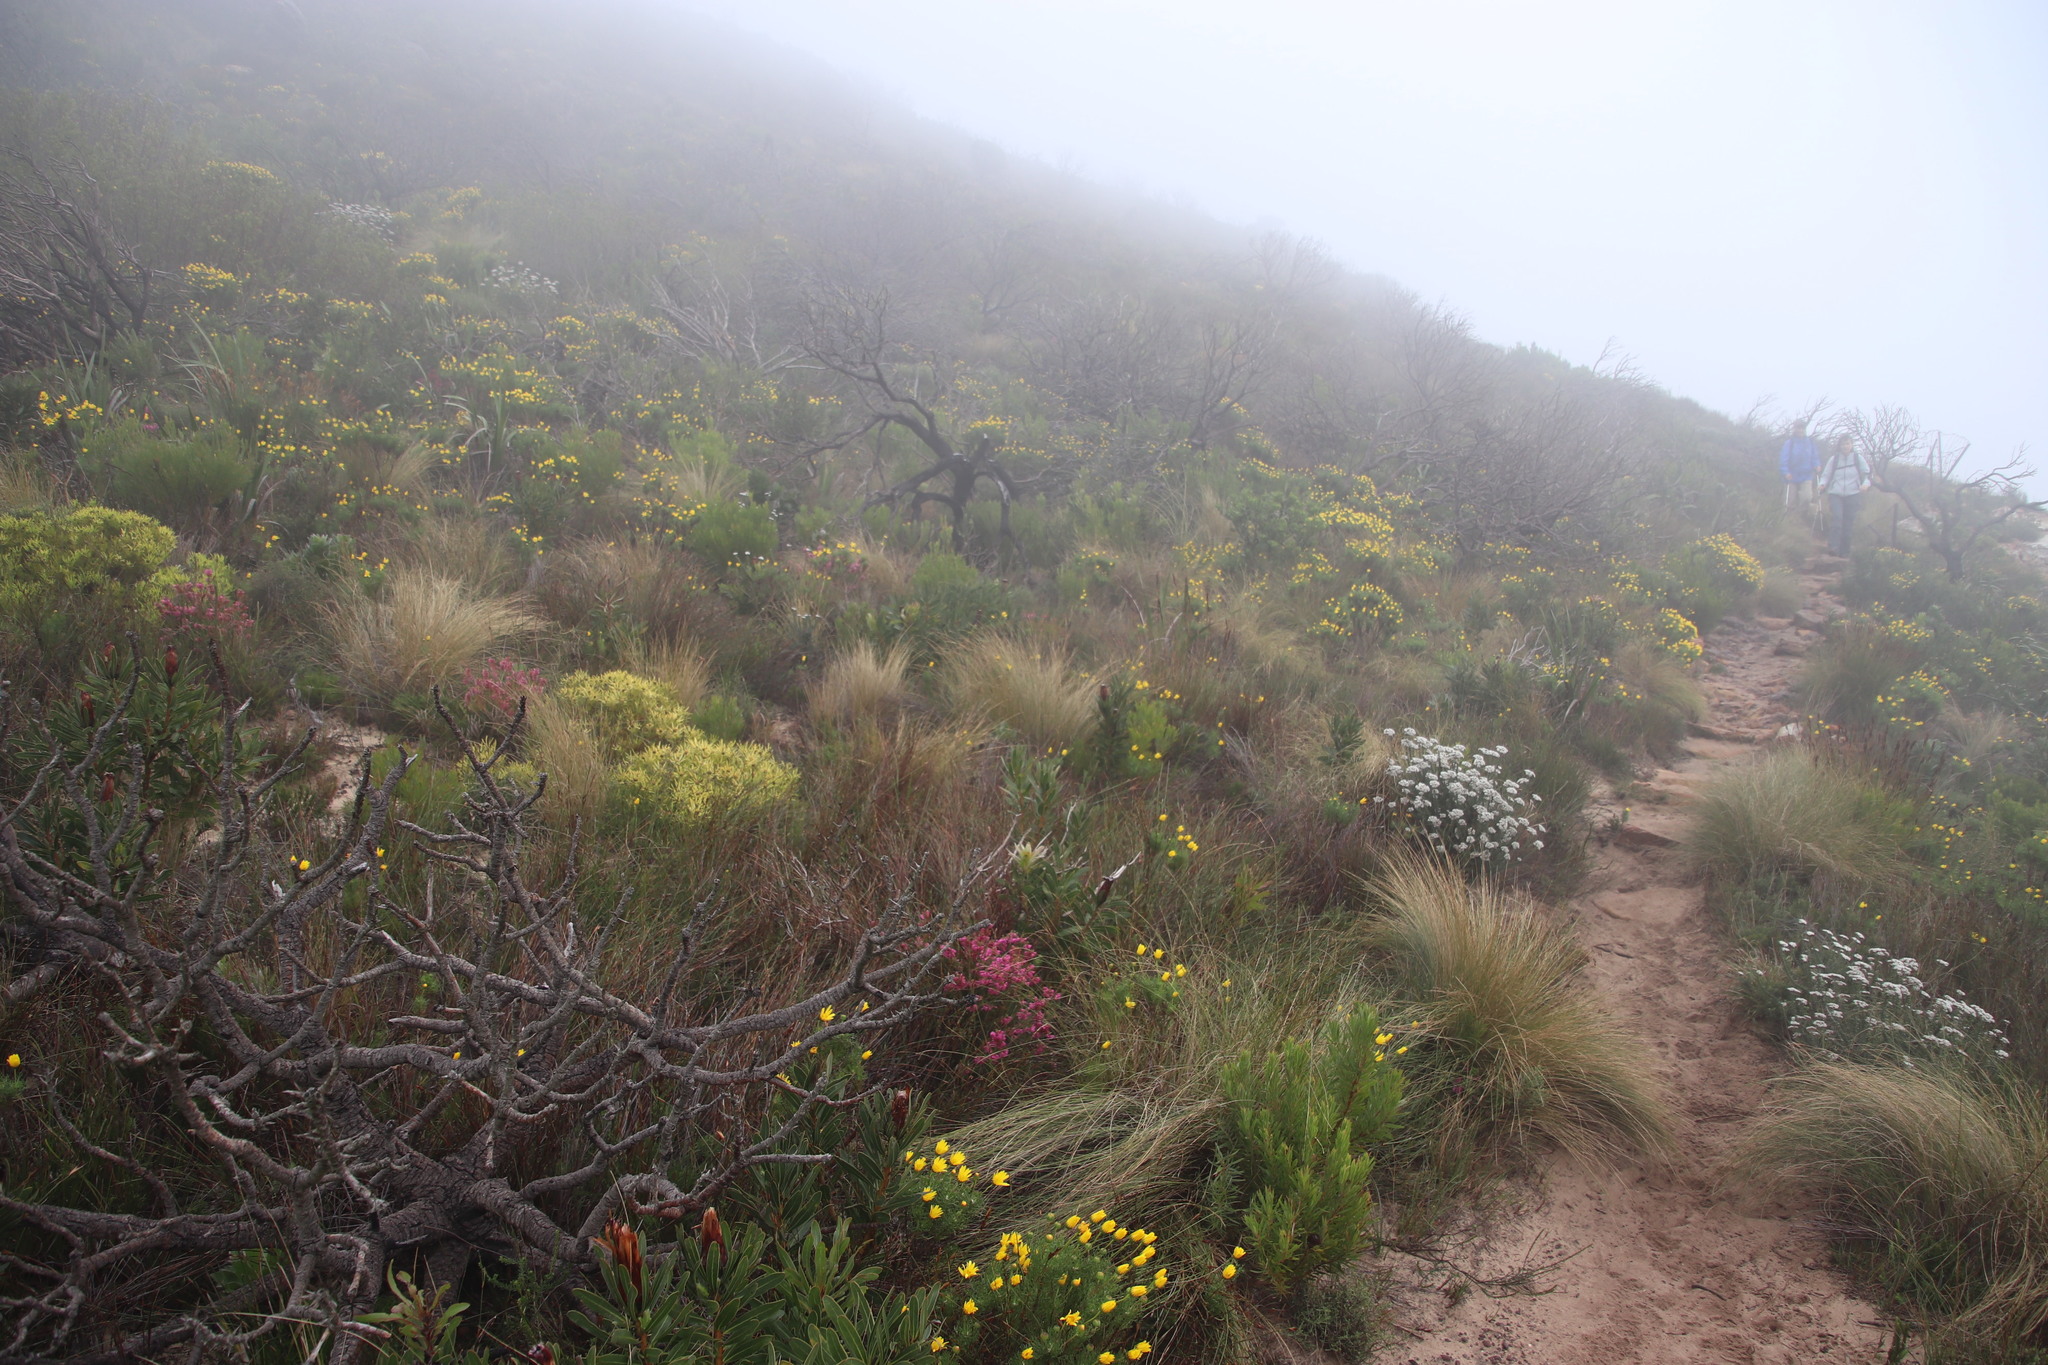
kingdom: Plantae
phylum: Tracheophyta
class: Magnoliopsida
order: Ericales
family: Ericaceae
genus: Erica
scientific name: Erica abietina
